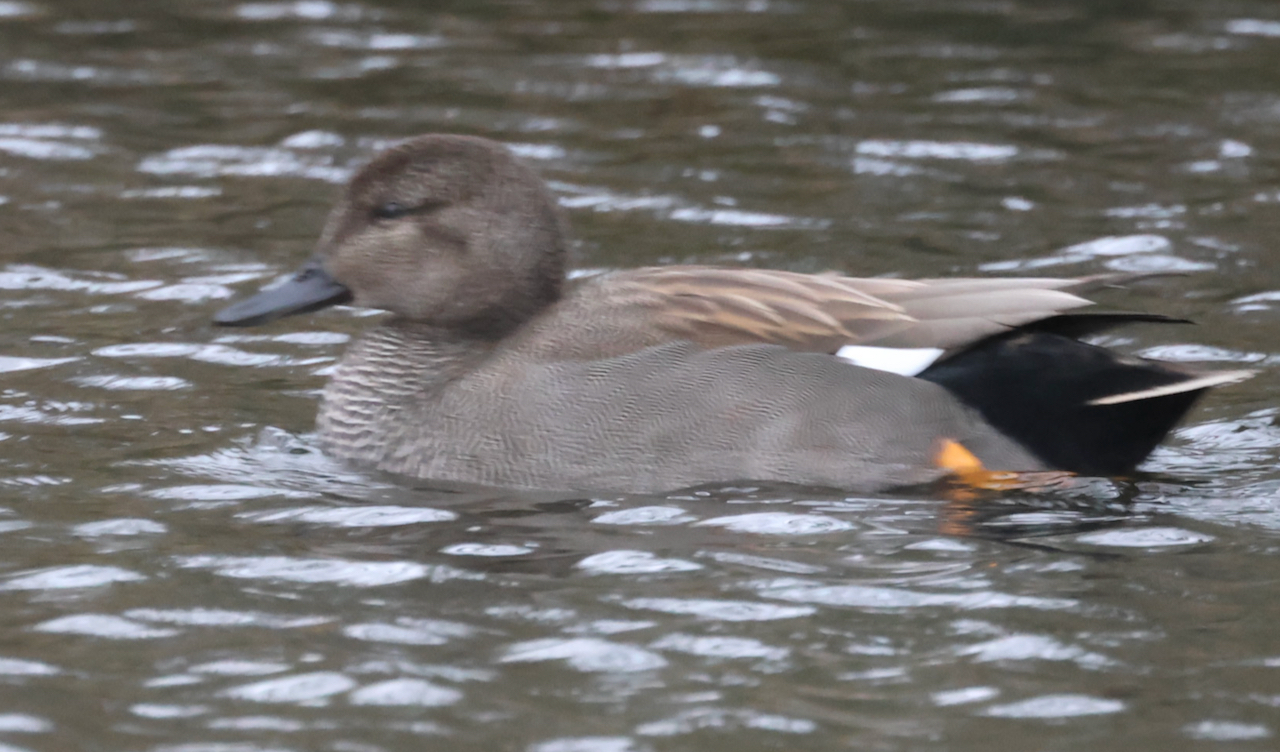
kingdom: Animalia
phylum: Chordata
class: Aves
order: Anseriformes
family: Anatidae
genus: Mareca
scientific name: Mareca strepera
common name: Gadwall
